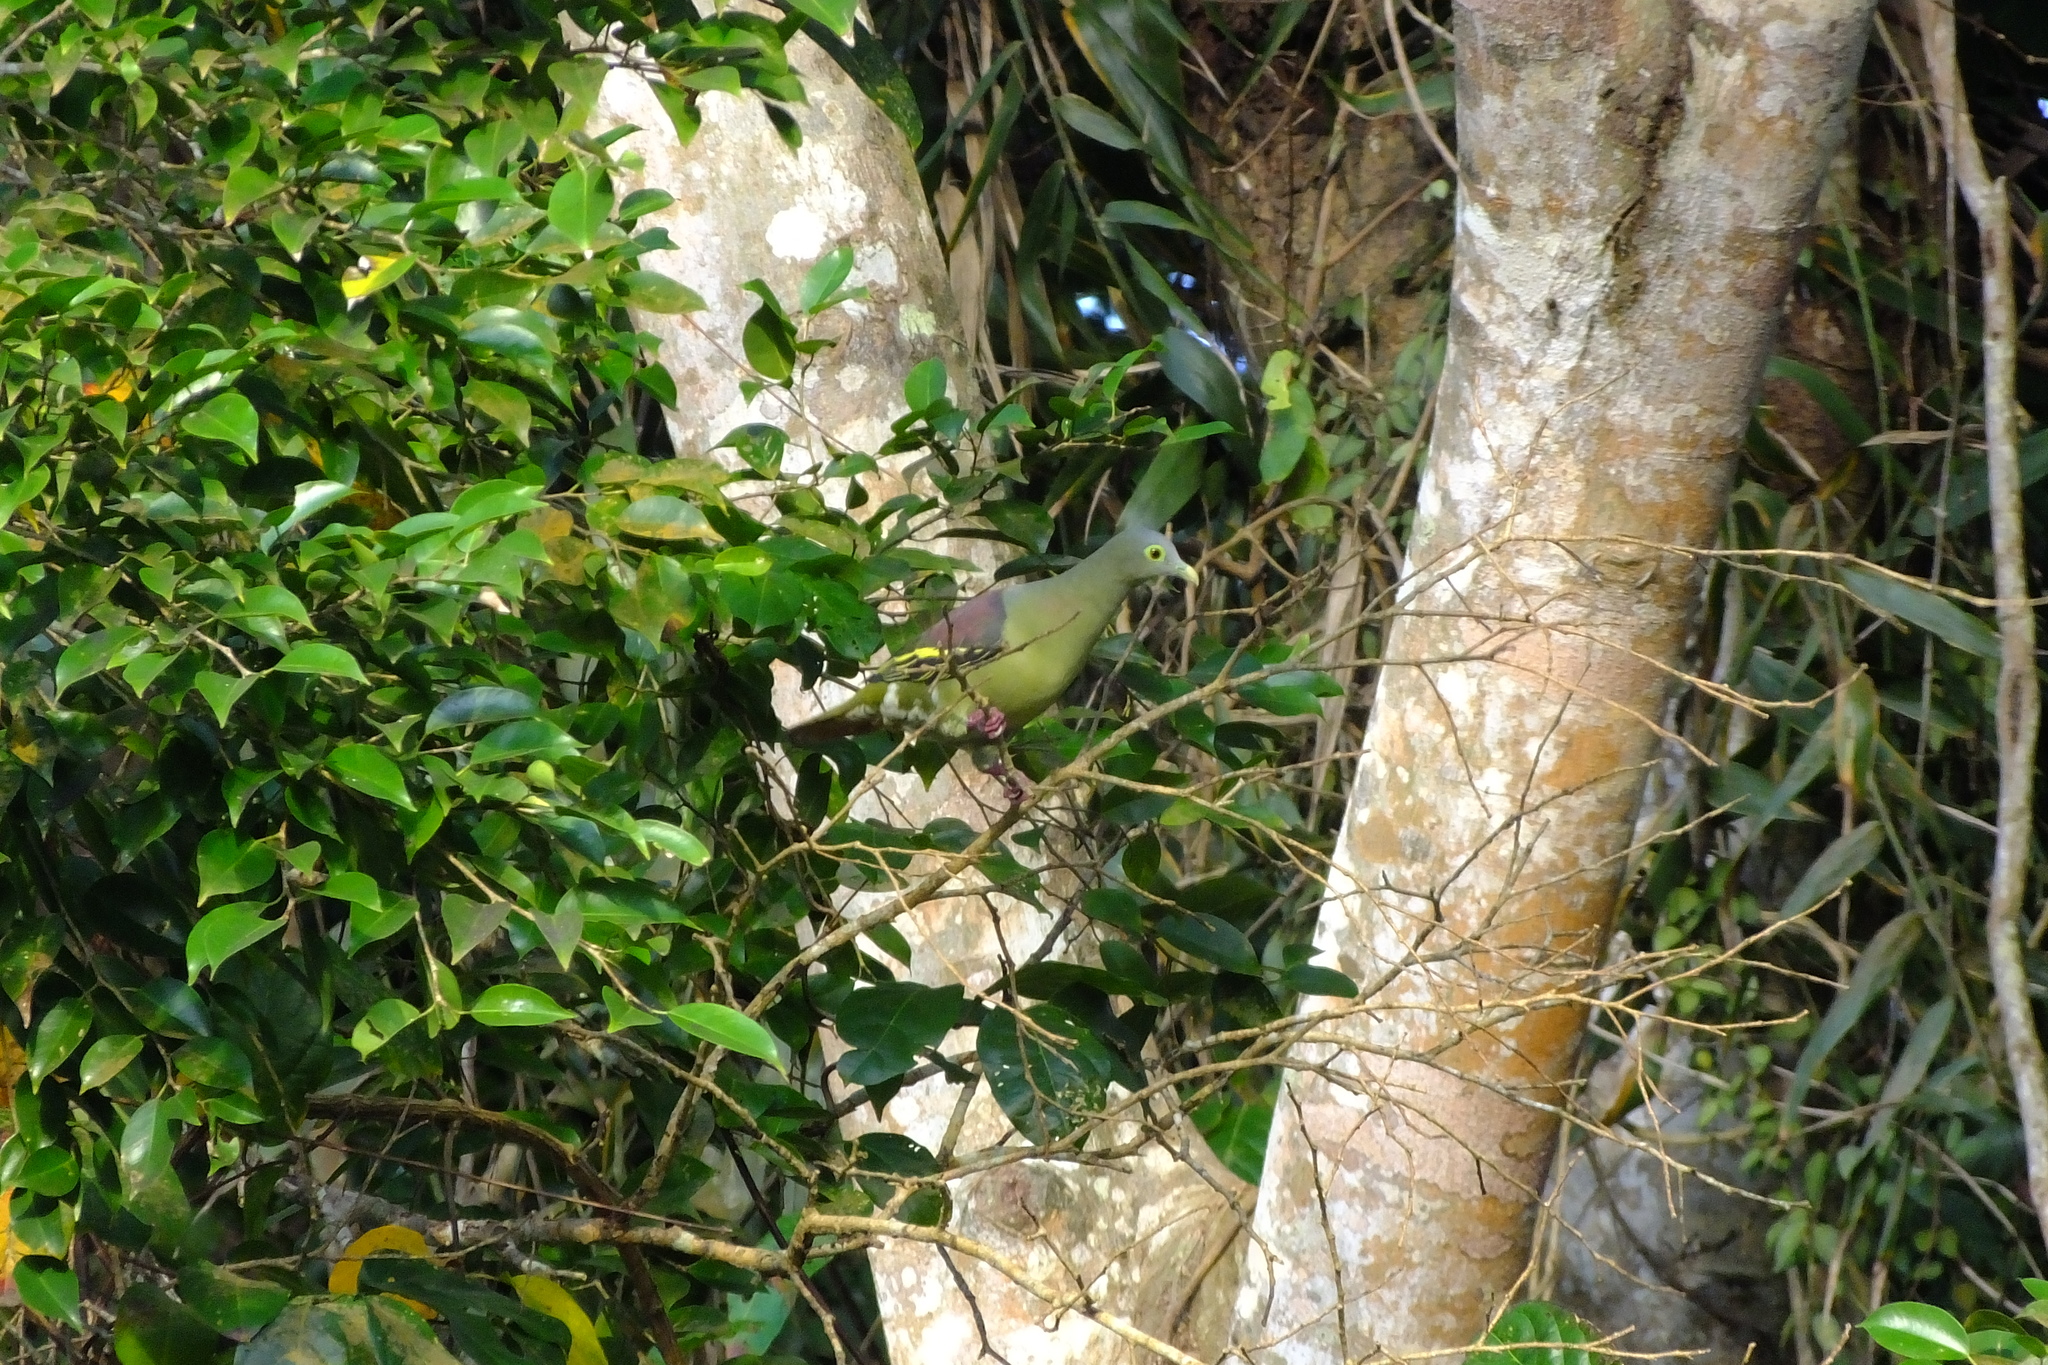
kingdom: Animalia
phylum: Chordata
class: Aves
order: Columbiformes
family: Columbidae
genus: Treron
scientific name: Treron griseicauda
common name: Grey-cheeked green pigeon
